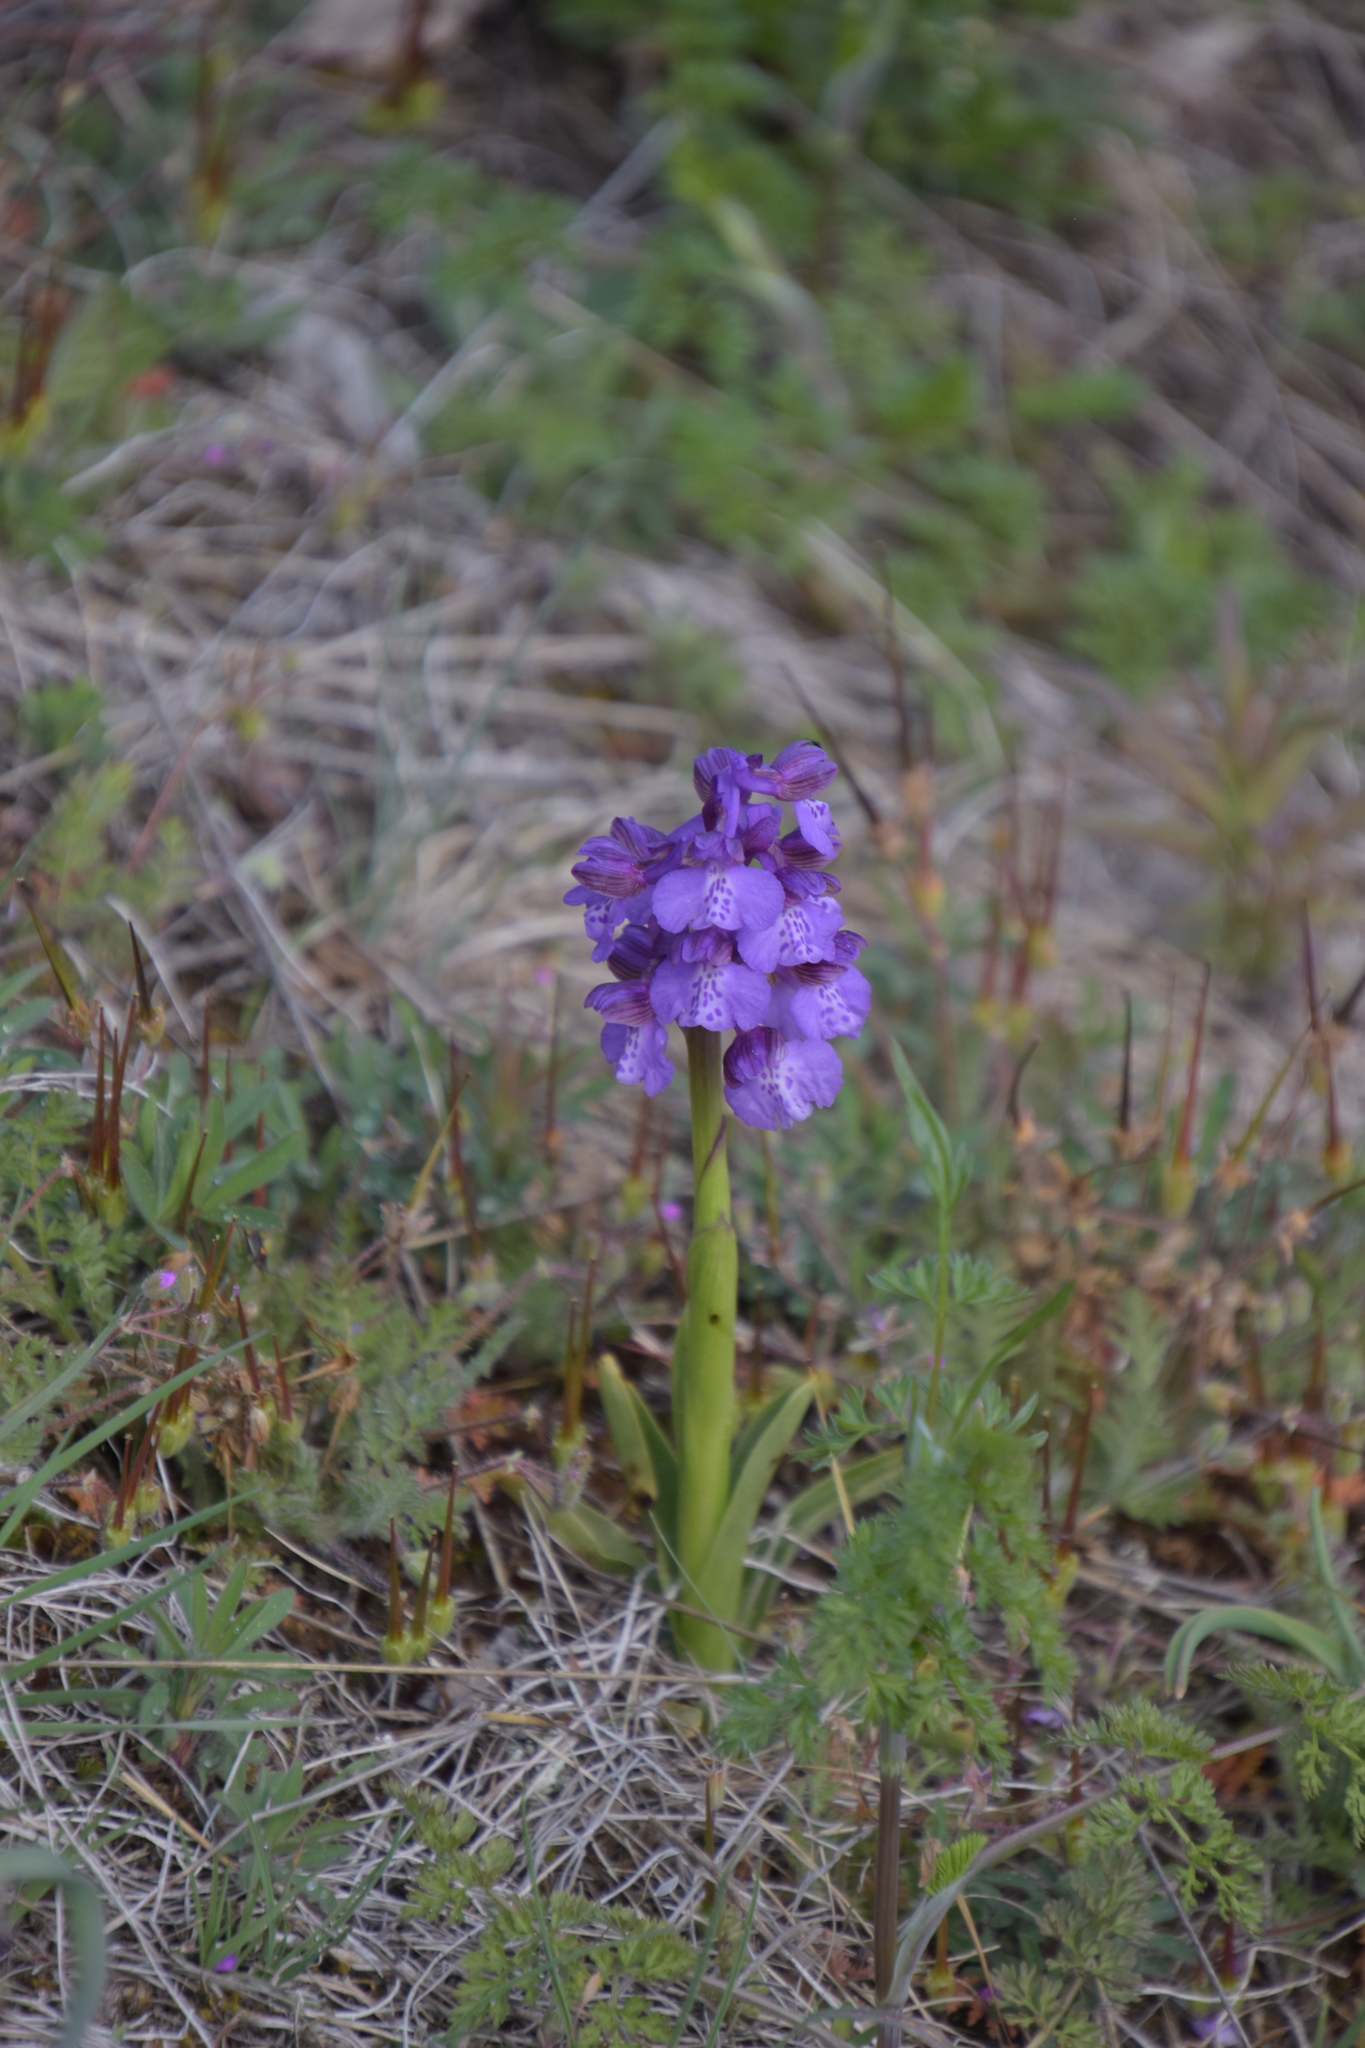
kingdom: Plantae
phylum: Tracheophyta
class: Liliopsida
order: Asparagales
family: Orchidaceae
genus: Anacamptis
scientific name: Anacamptis morio
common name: Green-winged orchid
